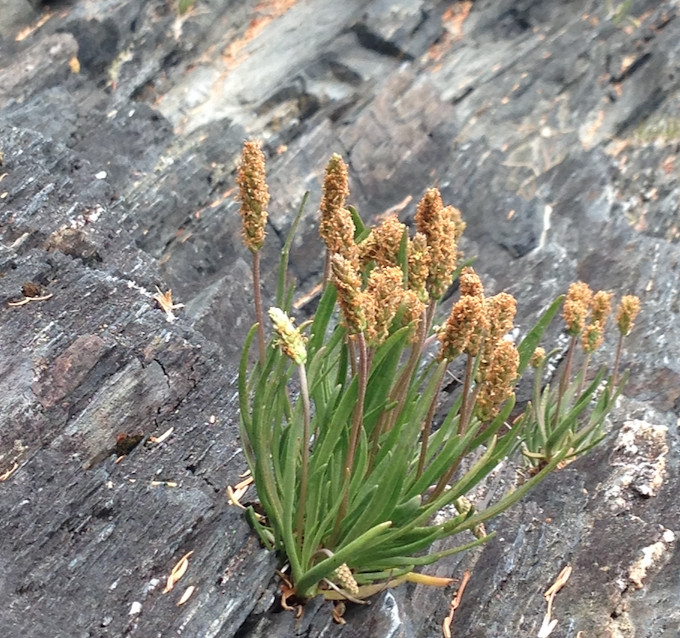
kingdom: Plantae
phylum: Tracheophyta
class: Magnoliopsida
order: Lamiales
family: Plantaginaceae
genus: Plantago
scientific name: Plantago maritima
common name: Sea plantain
